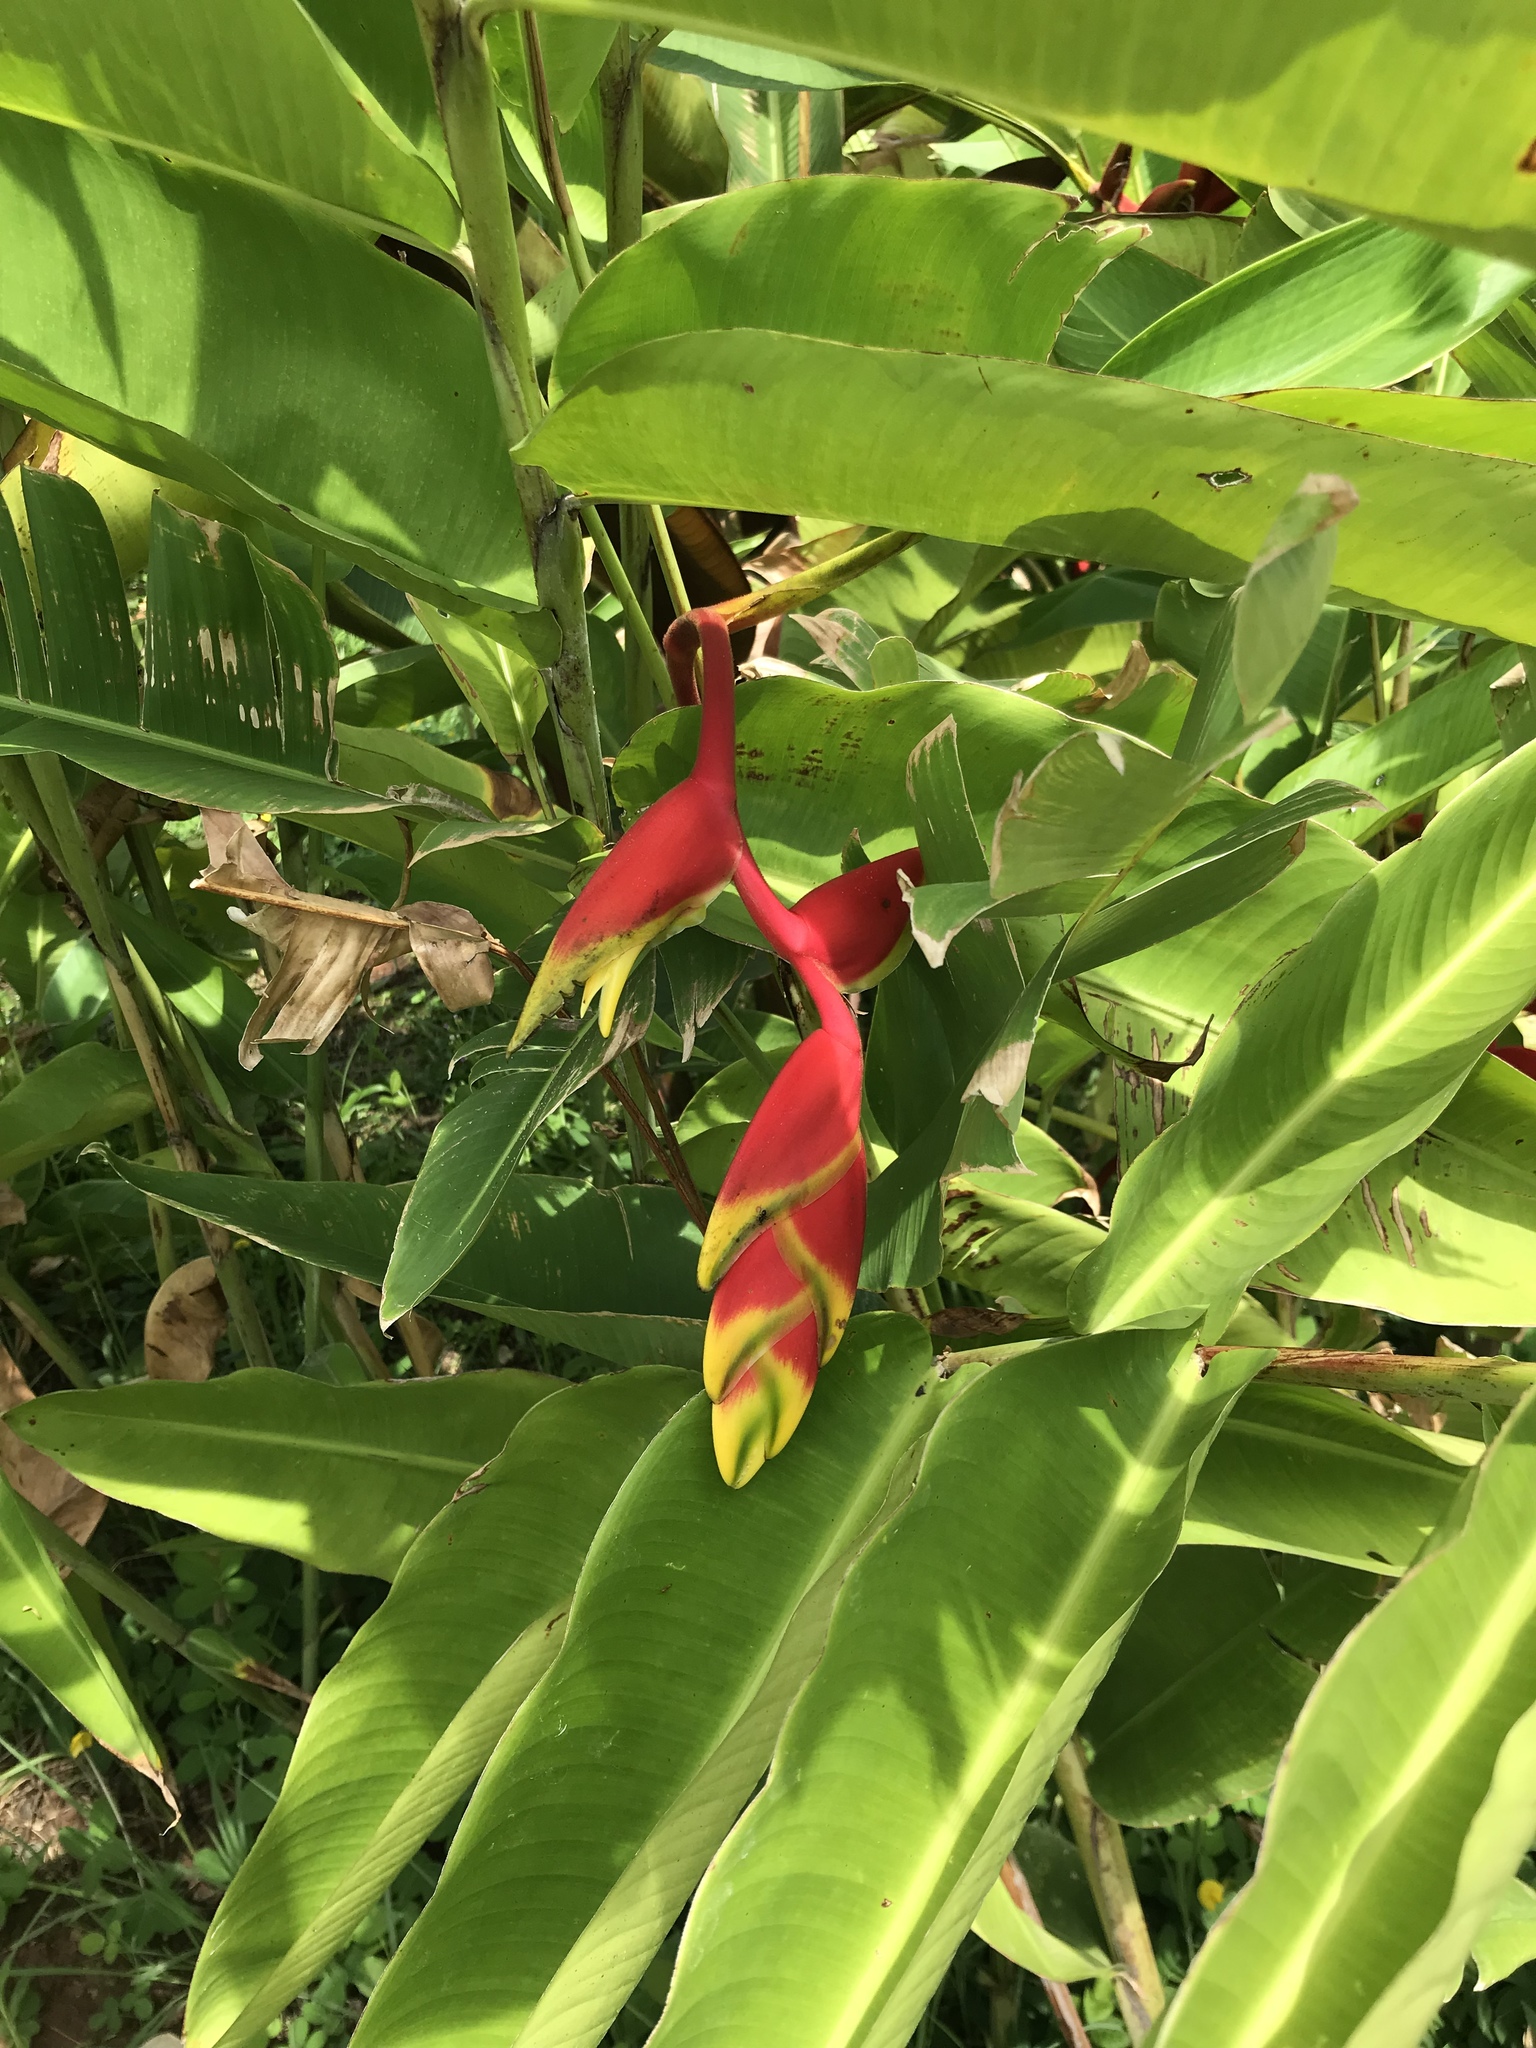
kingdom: Plantae
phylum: Tracheophyta
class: Liliopsida
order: Zingiberales
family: Heliconiaceae
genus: Heliconia
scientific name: Heliconia rostrata
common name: False bird of paradise
